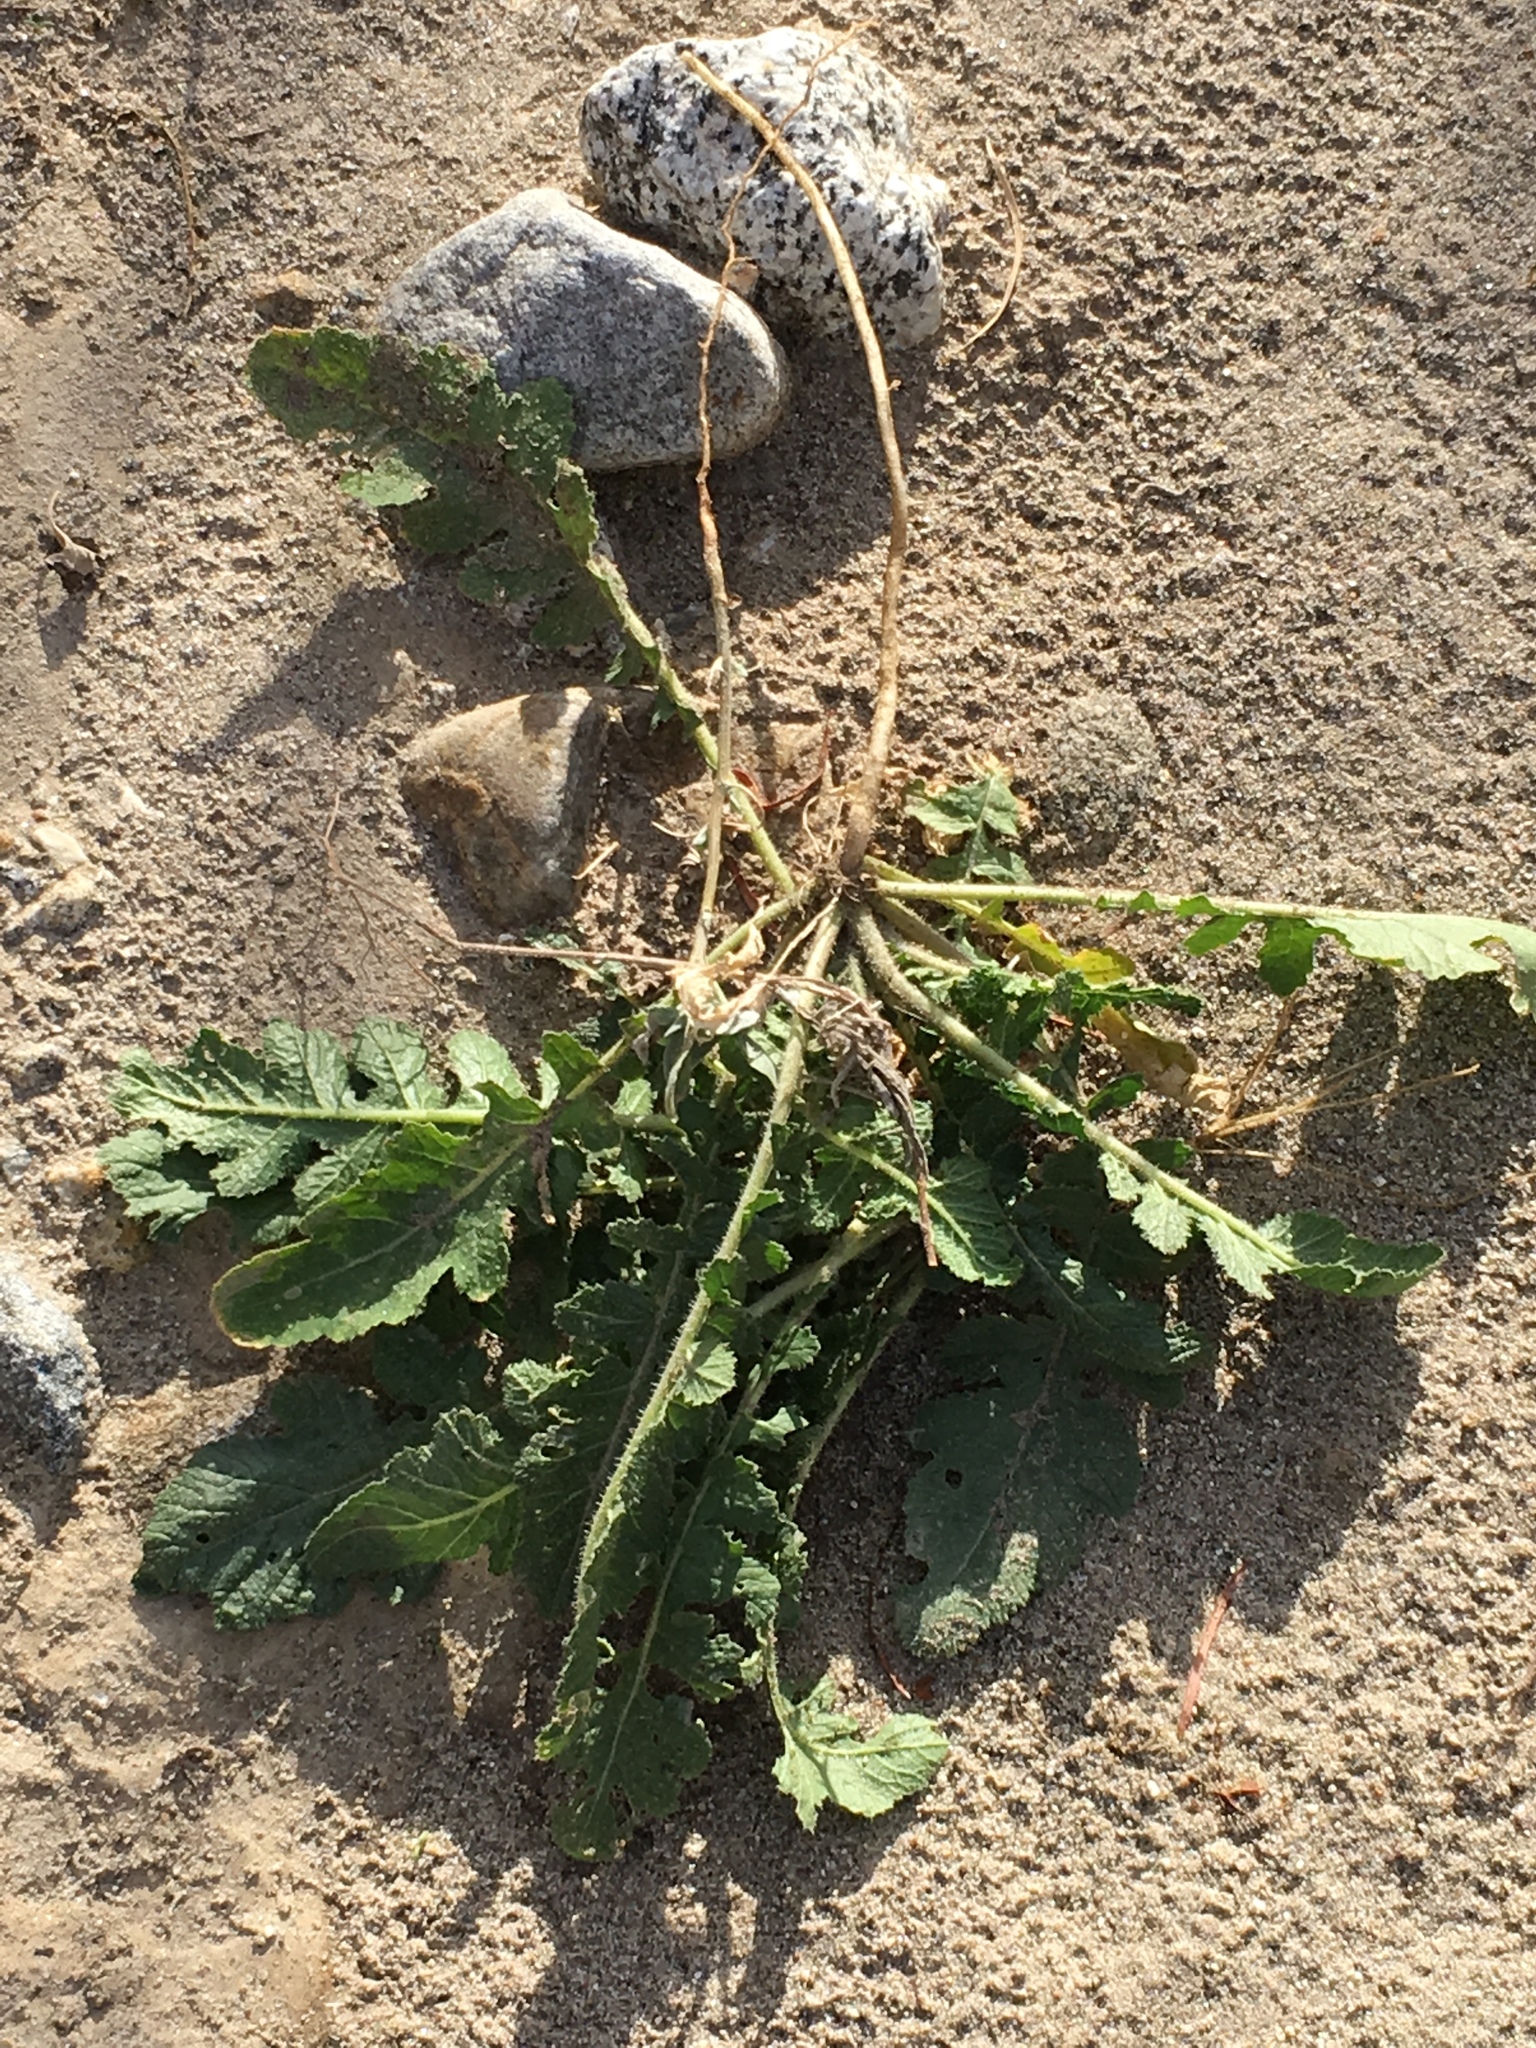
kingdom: Plantae
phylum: Tracheophyta
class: Magnoliopsida
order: Brassicales
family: Brassicaceae
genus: Brassica
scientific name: Brassica tournefortii
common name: Pale cabbage
